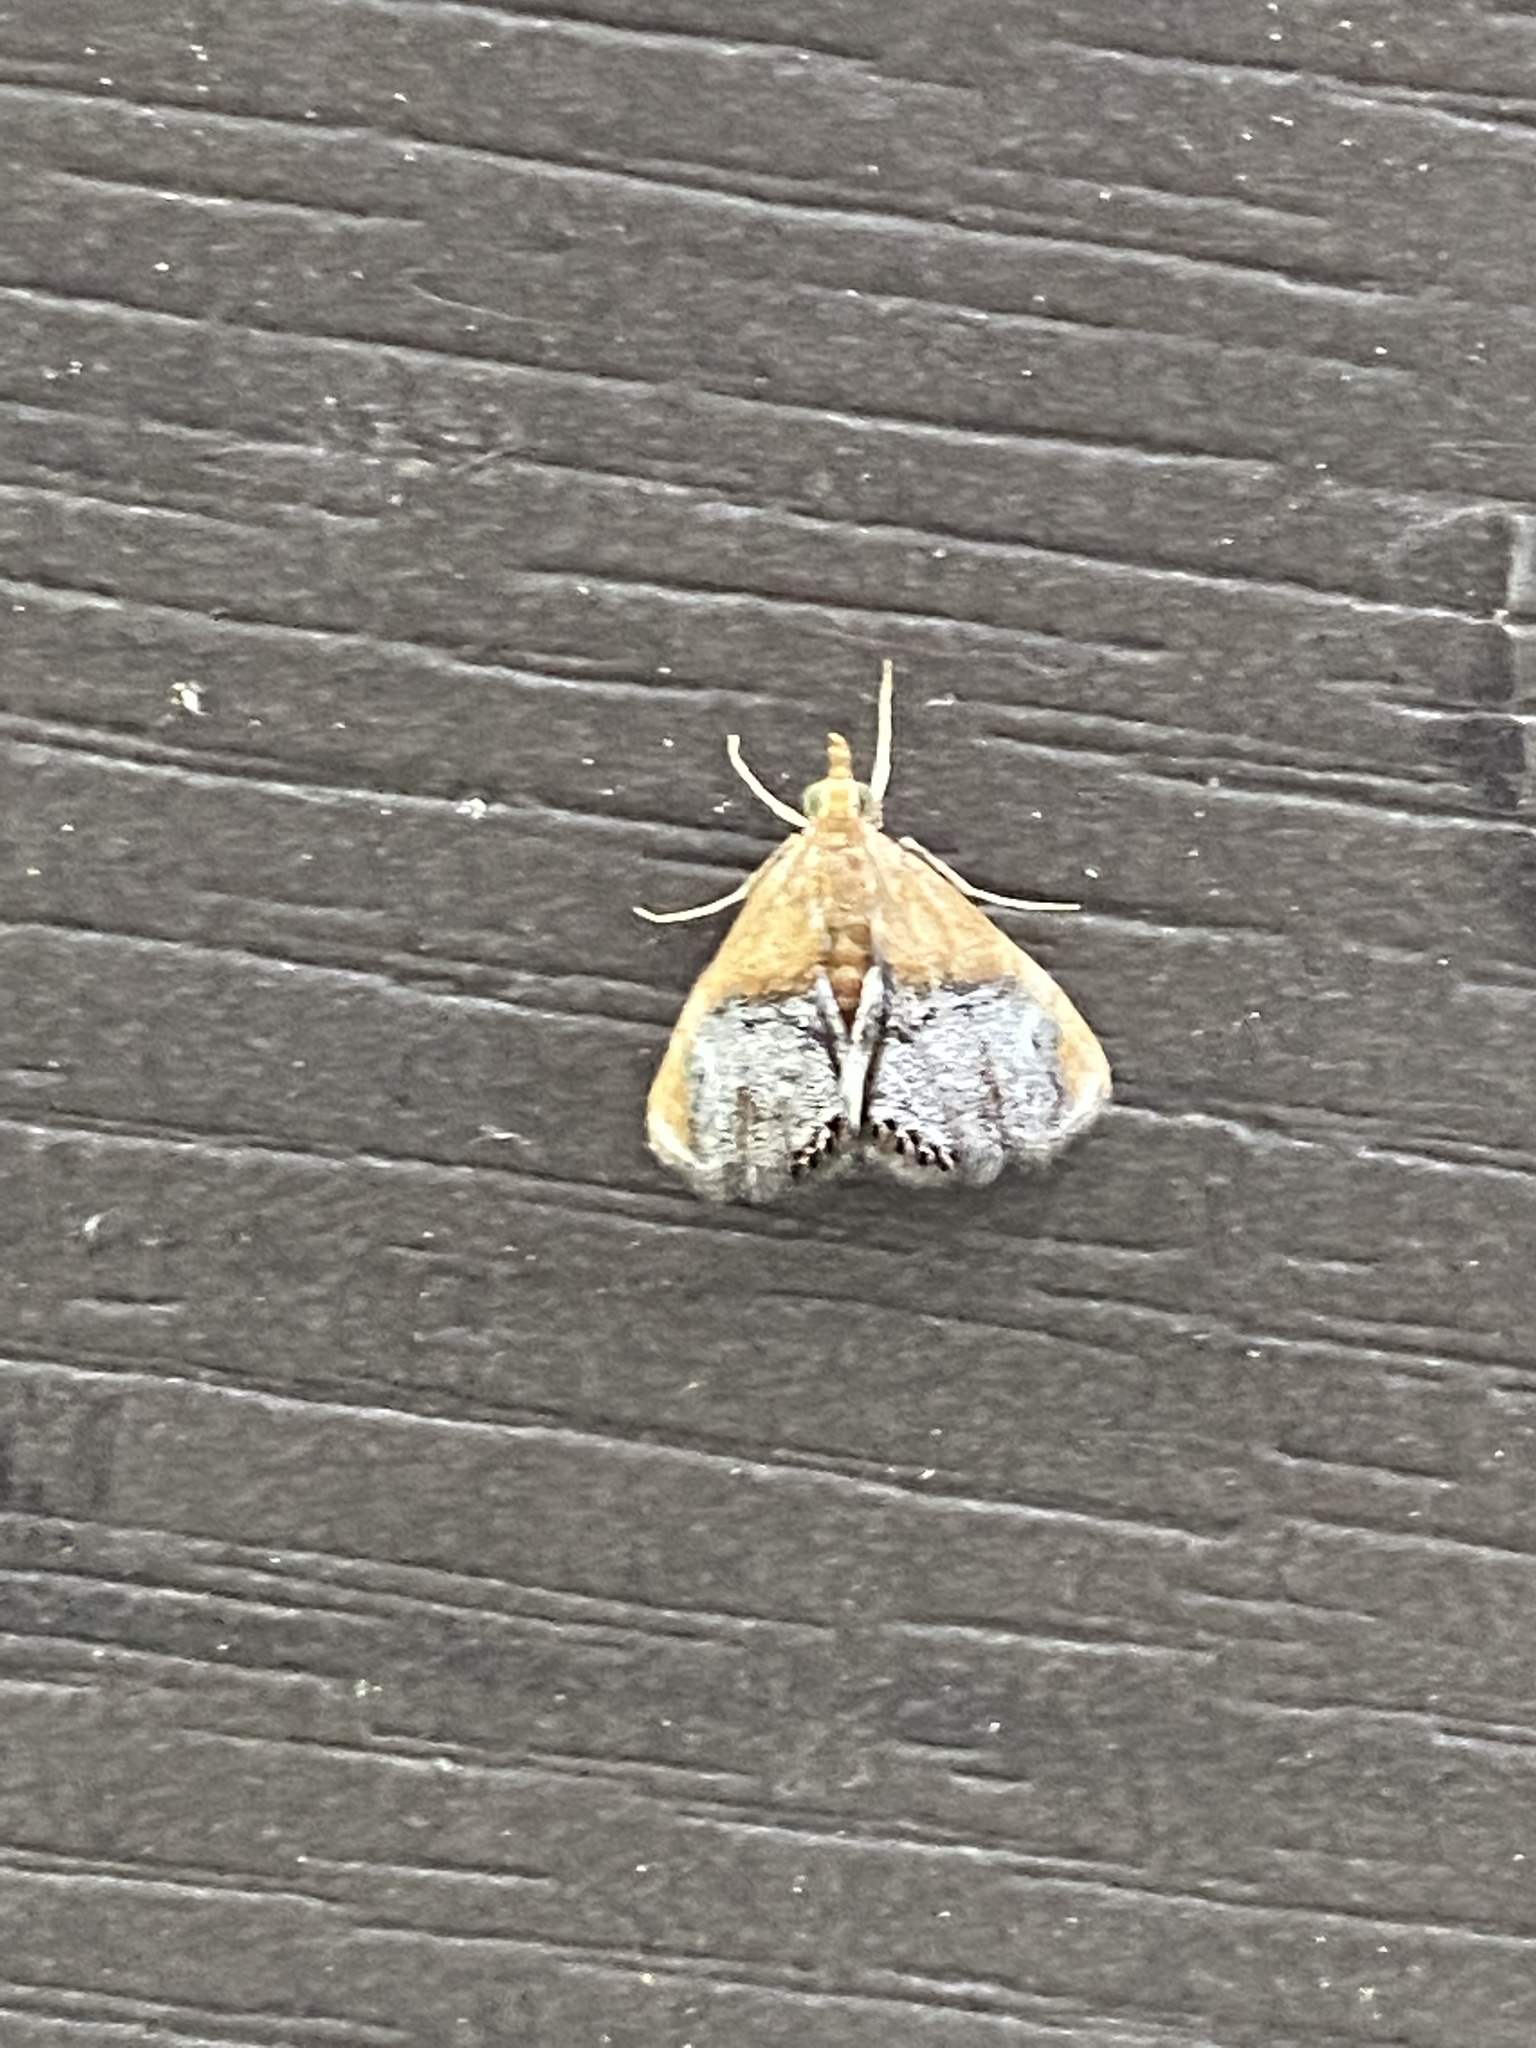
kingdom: Animalia
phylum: Arthropoda
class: Insecta
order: Lepidoptera
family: Crambidae
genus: Chalcoela
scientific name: Chalcoela iphitalis
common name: Sooty-winged chalcoela moth
